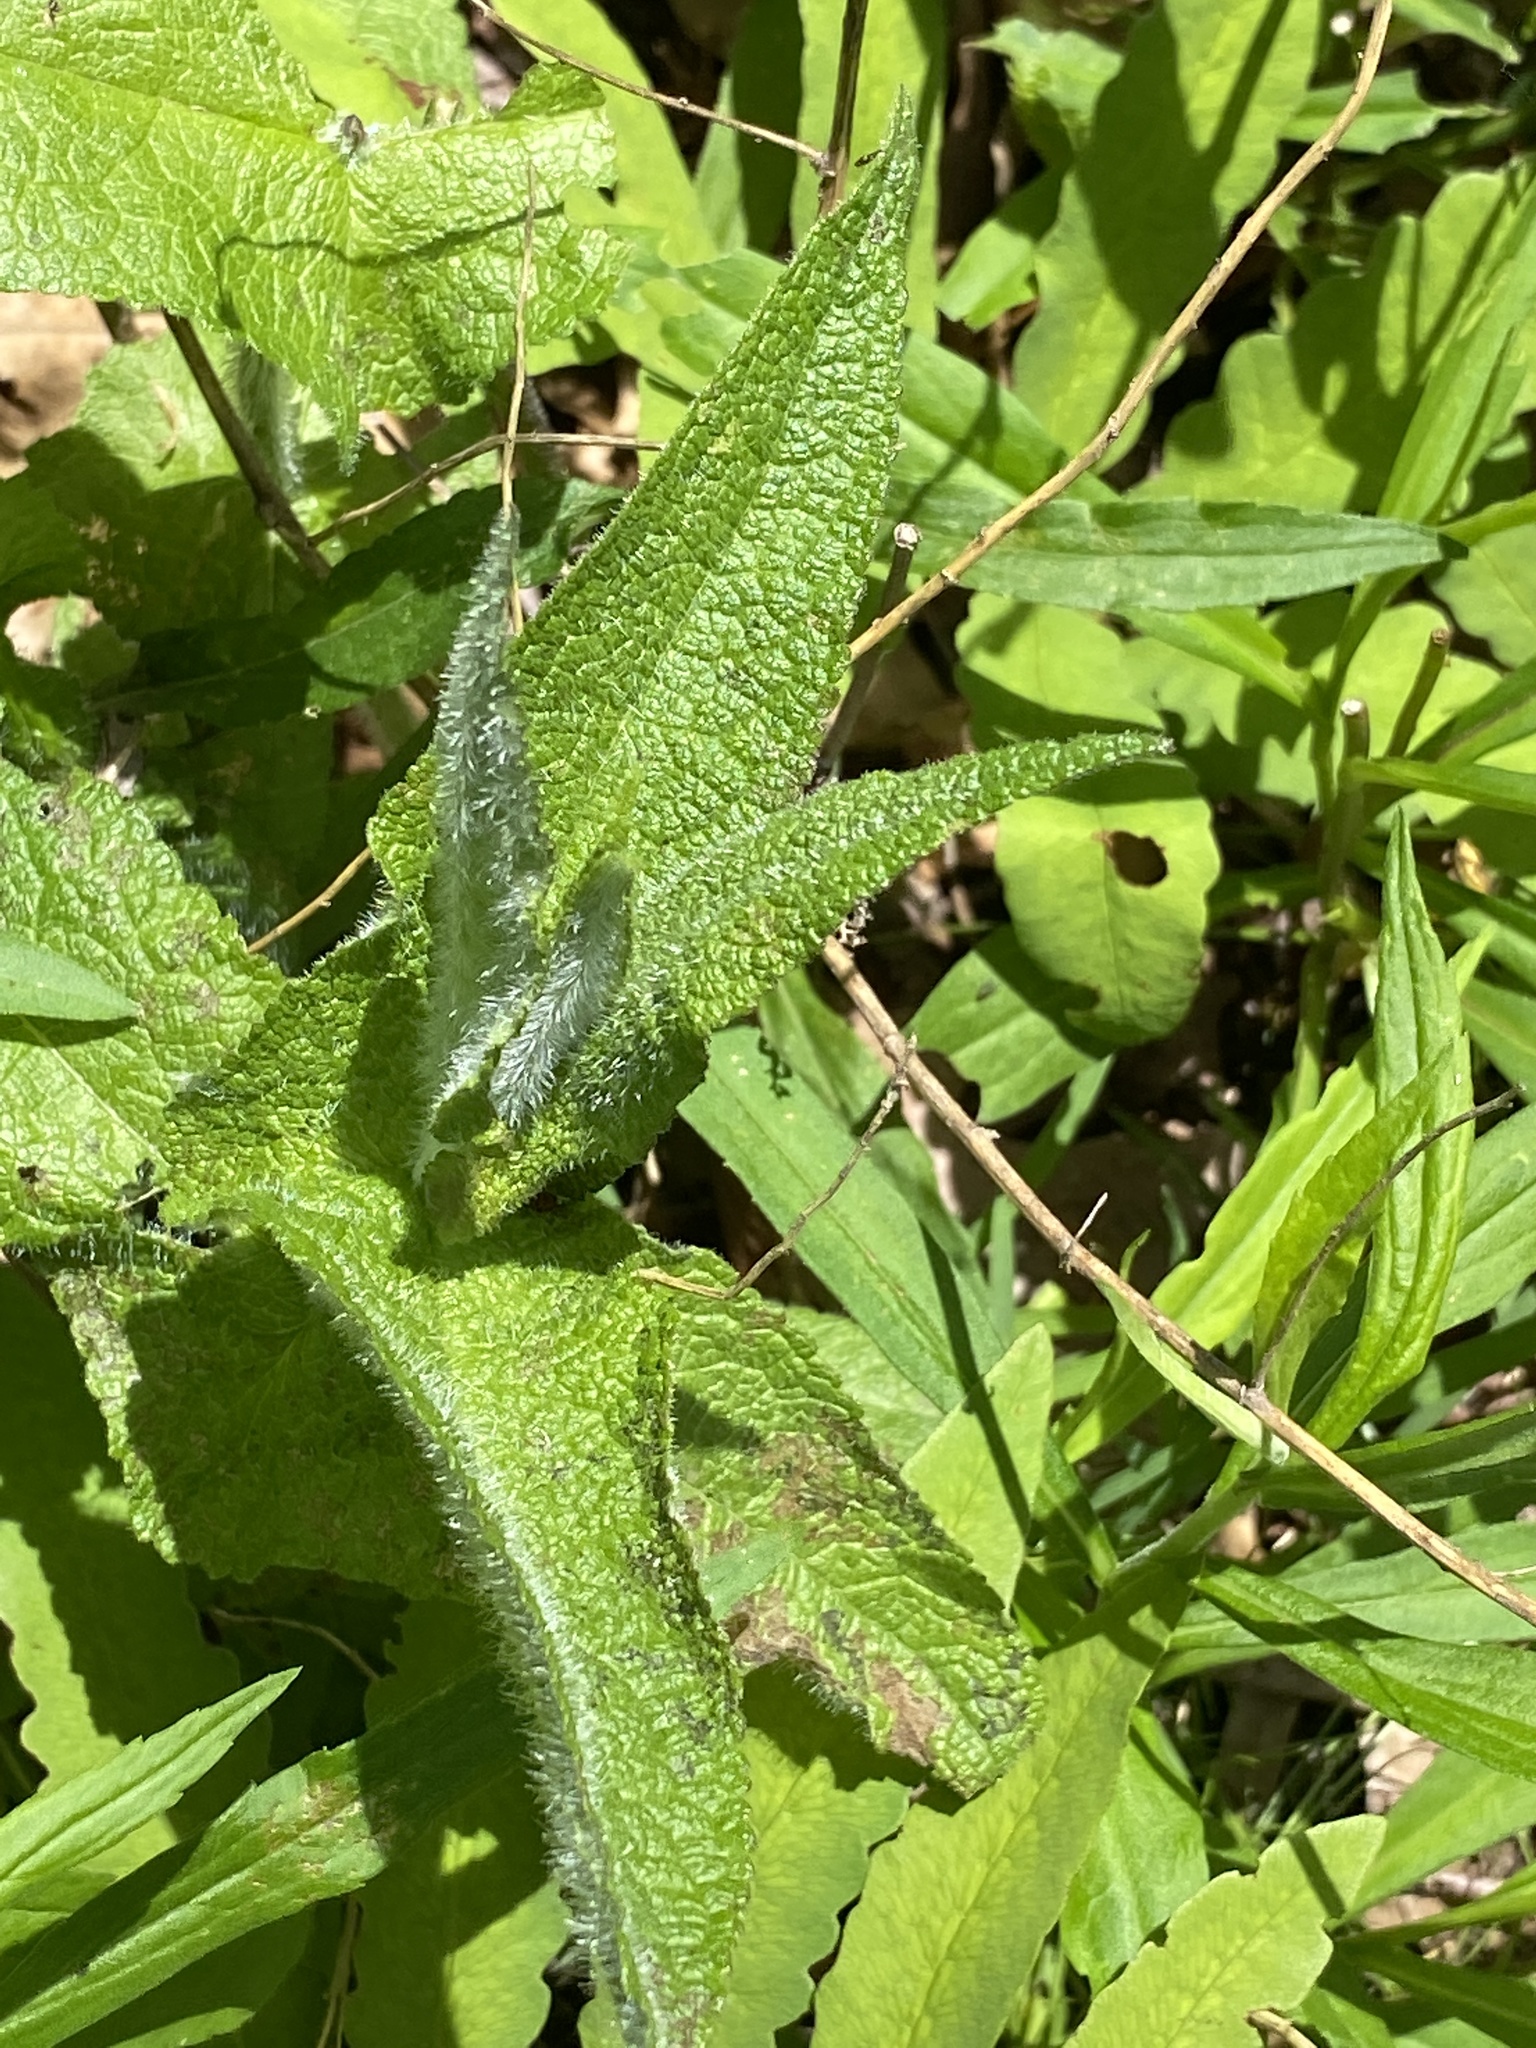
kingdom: Plantae
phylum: Tracheophyta
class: Magnoliopsida
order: Asterales
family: Asteraceae
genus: Eupatorium
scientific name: Eupatorium perfoliatum
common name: Boneset
